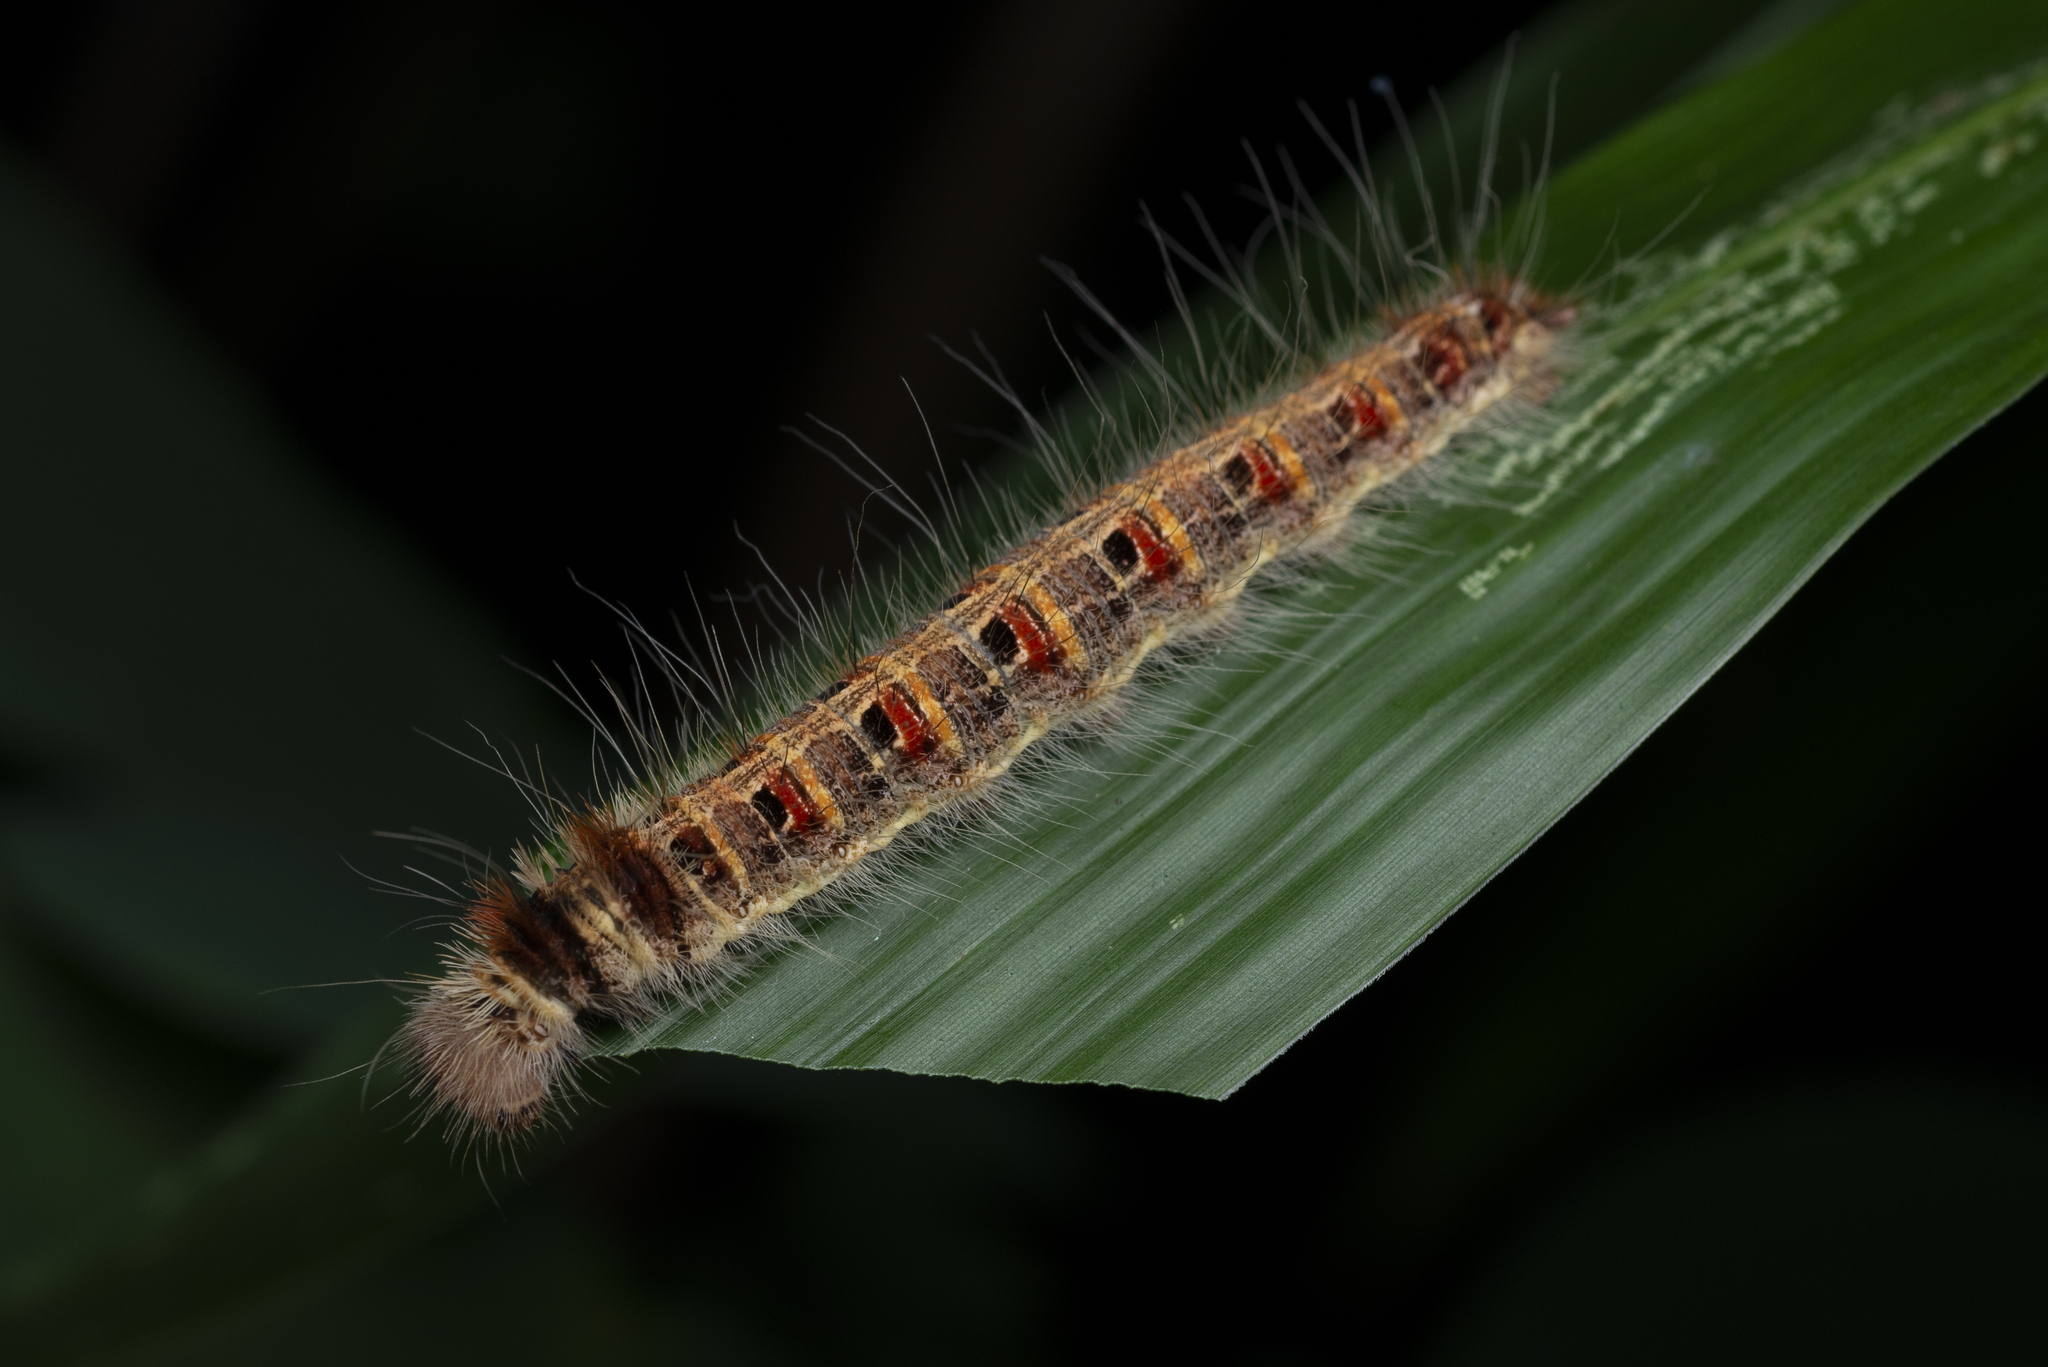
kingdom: Animalia
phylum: Arthropoda
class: Insecta
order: Lepidoptera
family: Nymphalidae
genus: Discophora
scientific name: Discophora sondaica
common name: Common duffer
